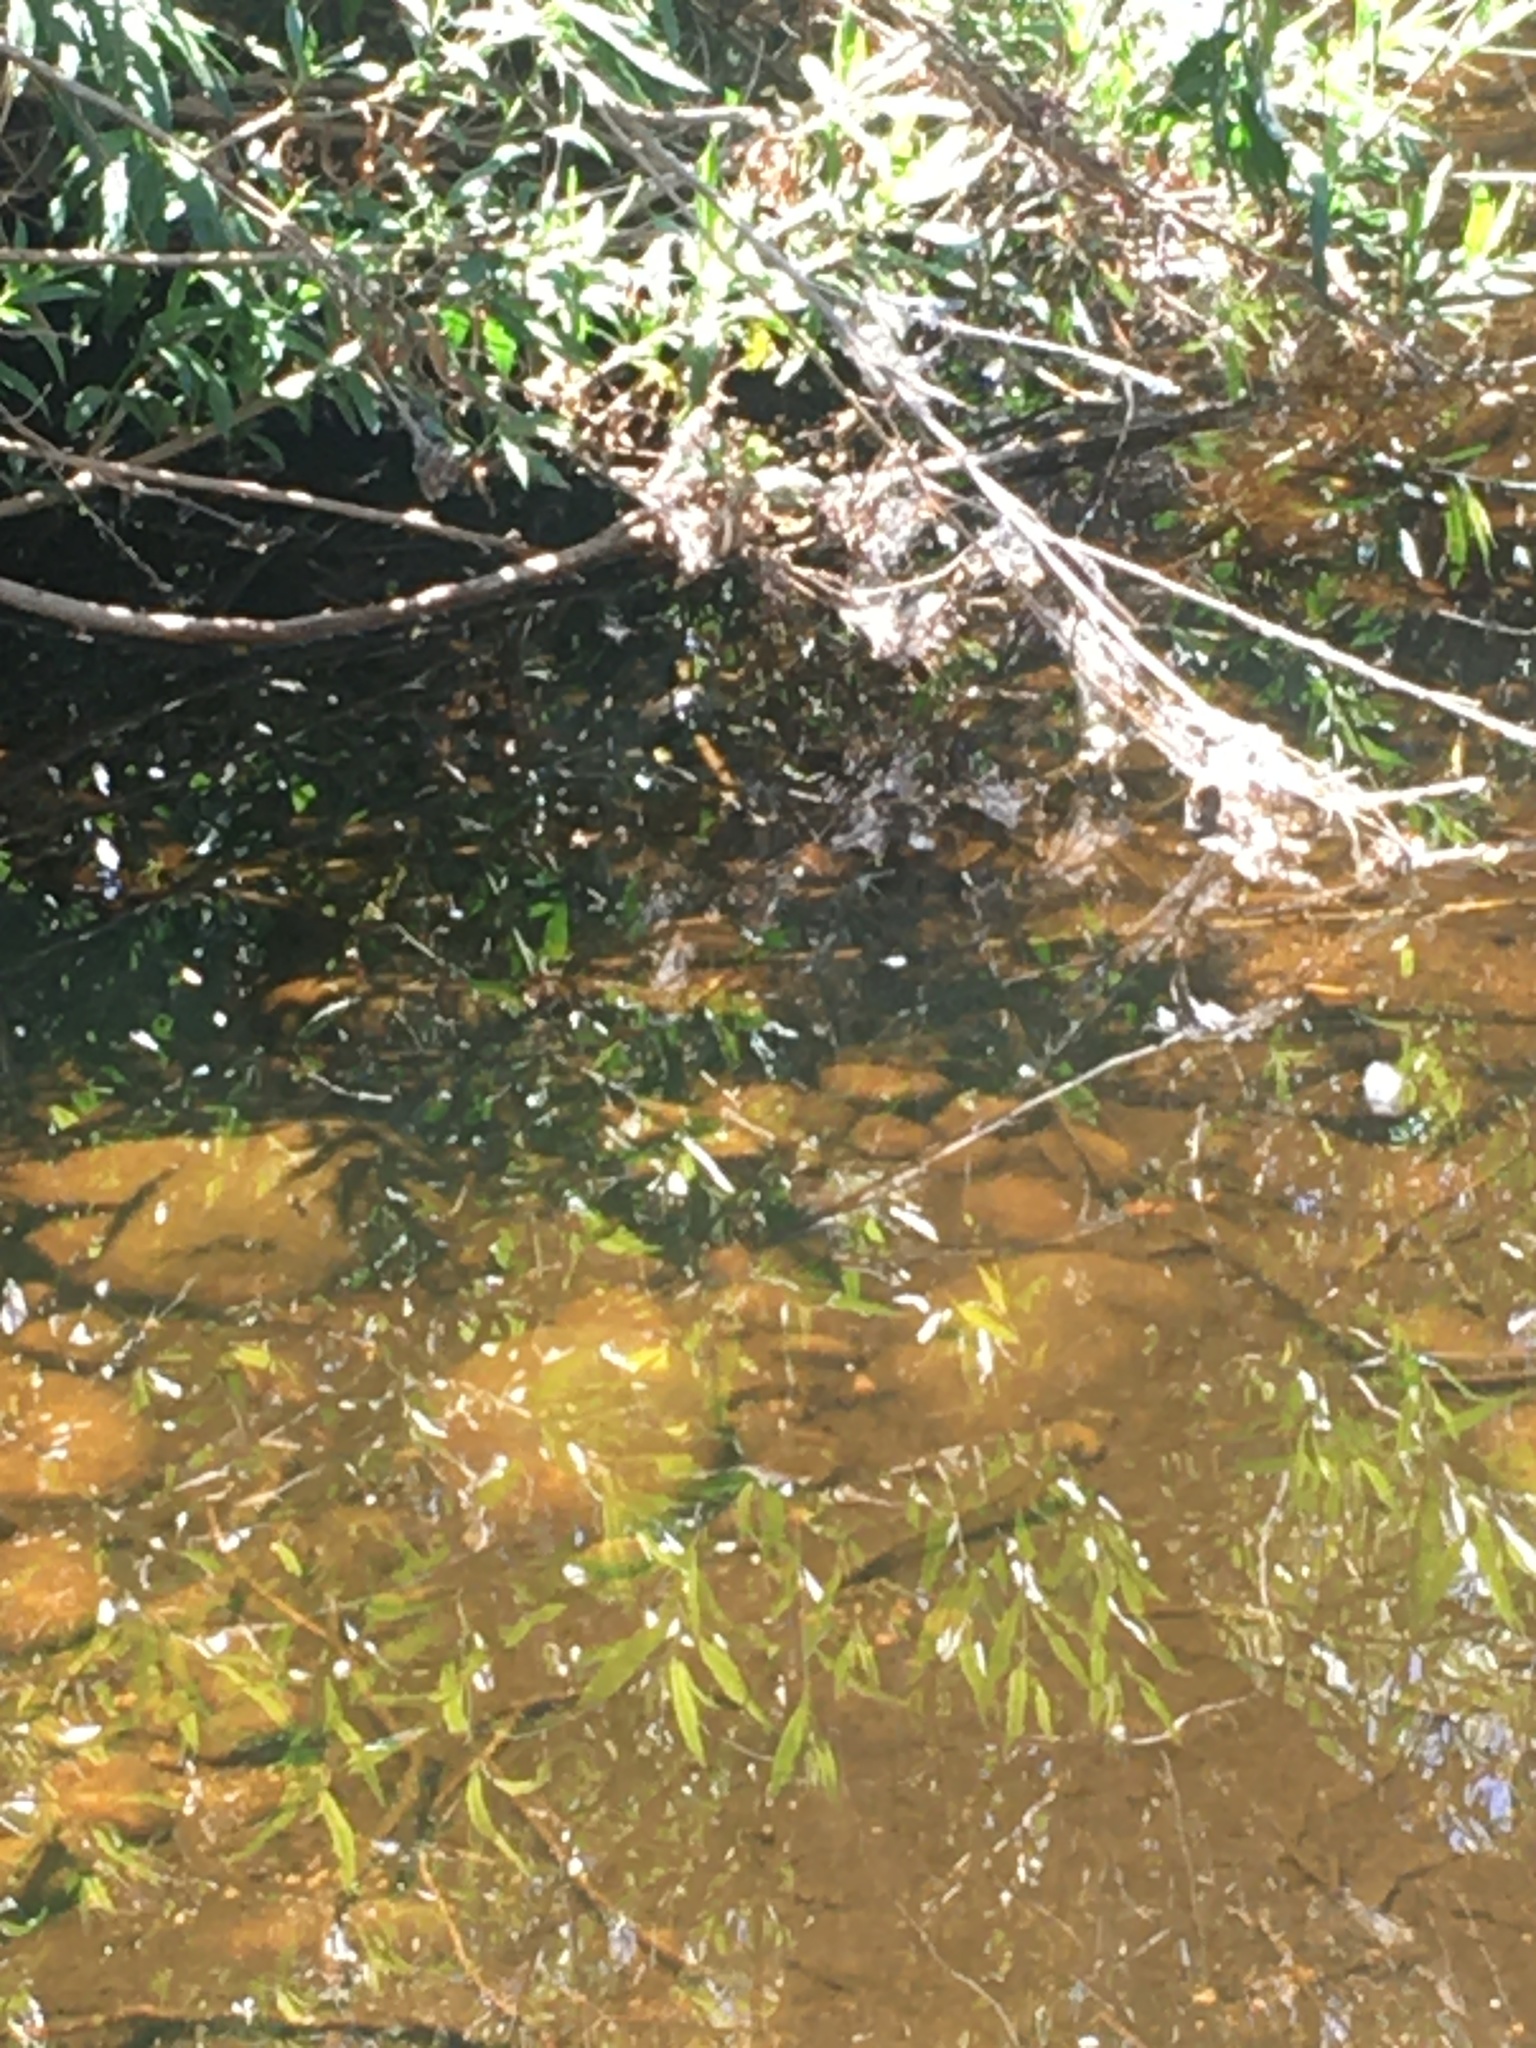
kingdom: Animalia
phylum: Chordata
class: Amphibia
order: Anura
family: Ranidae
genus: Lithobates
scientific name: Lithobates catesbeianus
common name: American bullfrog
